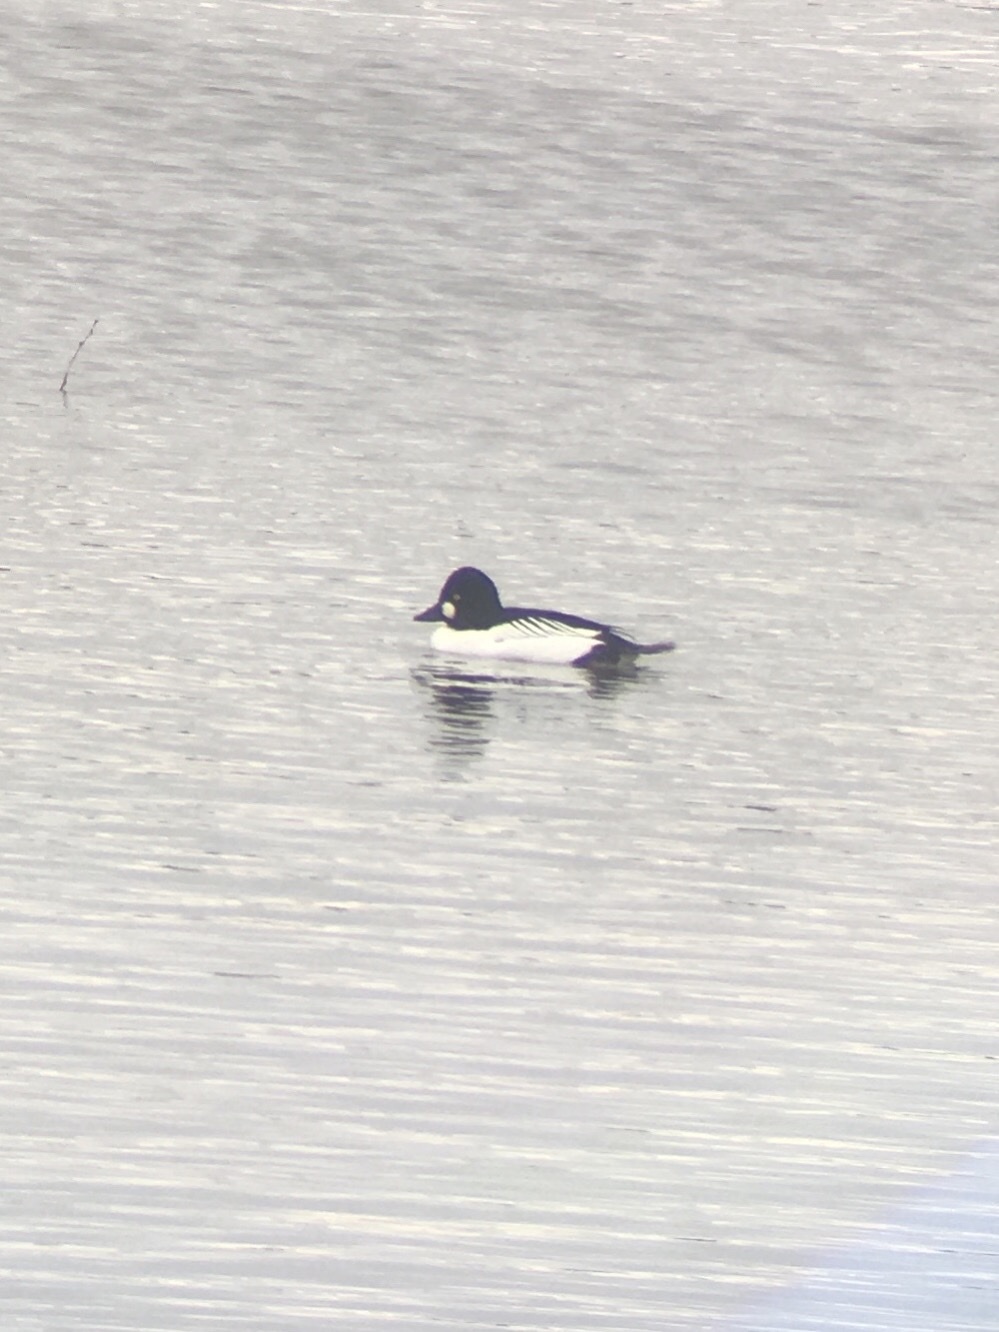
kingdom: Animalia
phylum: Chordata
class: Aves
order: Anseriformes
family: Anatidae
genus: Bucephala
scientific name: Bucephala clangula
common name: Common goldeneye
